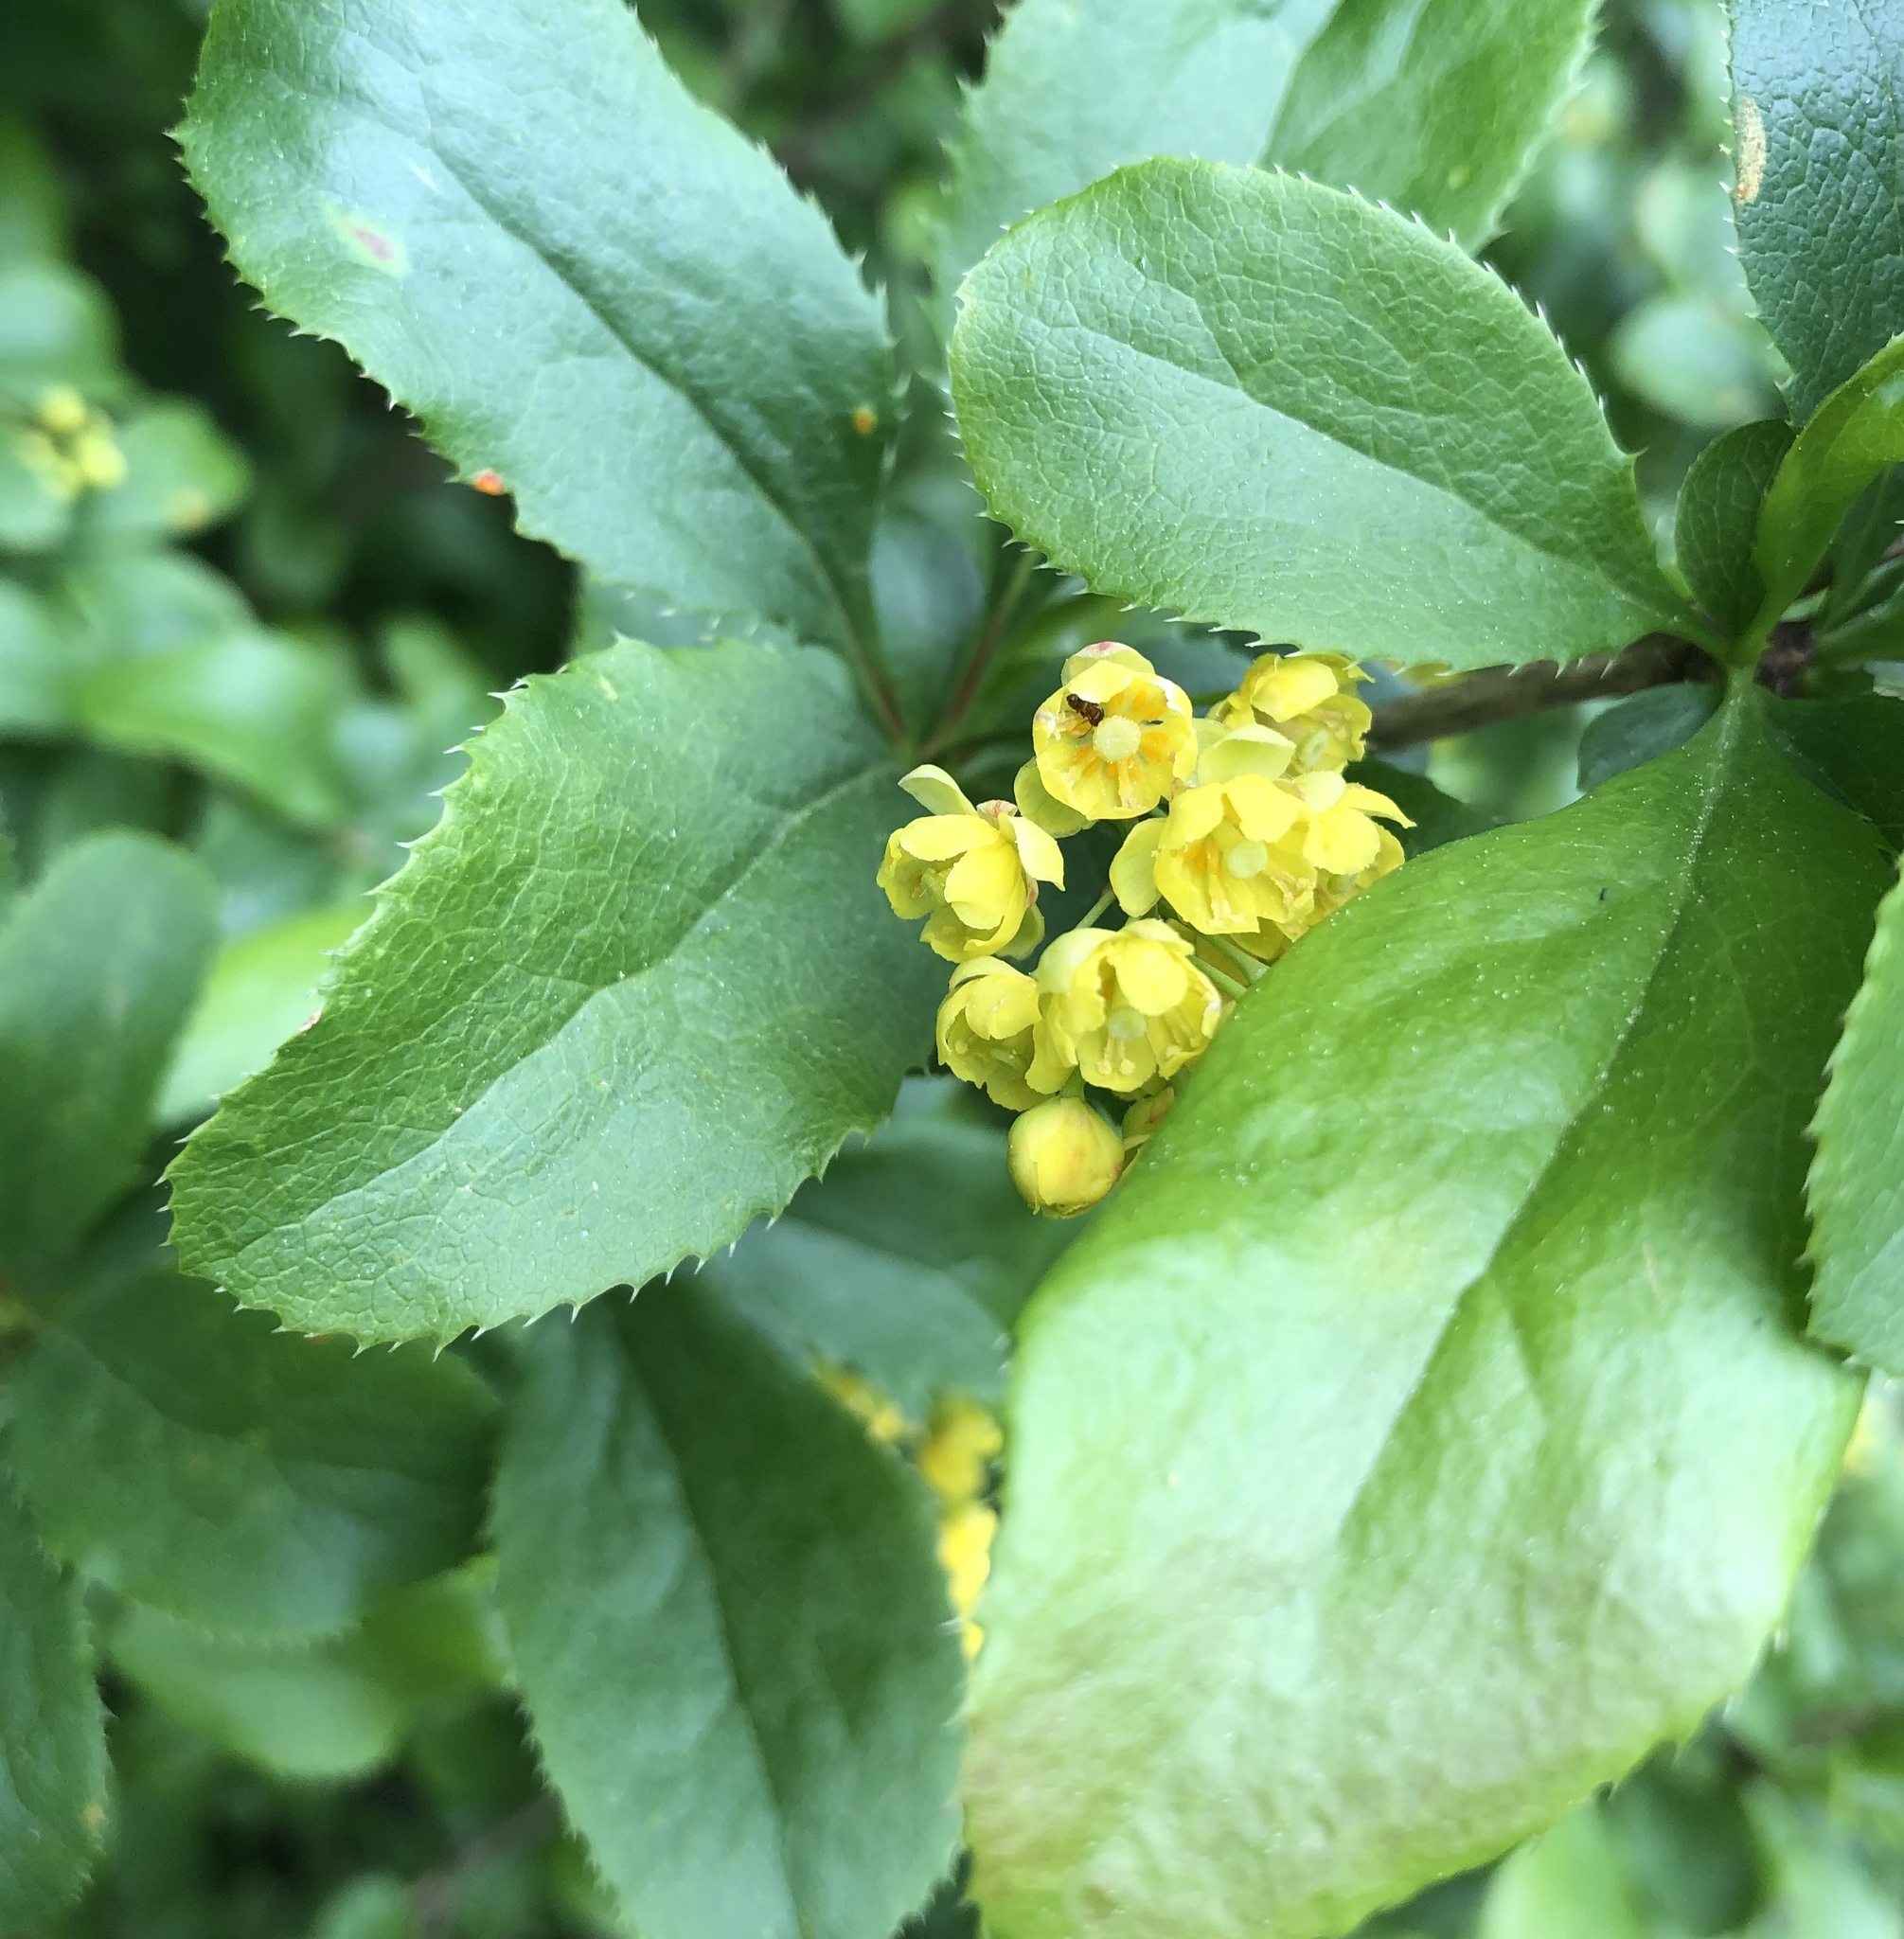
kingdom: Plantae
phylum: Tracheophyta
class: Magnoliopsida
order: Ranunculales
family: Berberidaceae
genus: Berberis
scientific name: Berberis vulgaris
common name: Barberry
